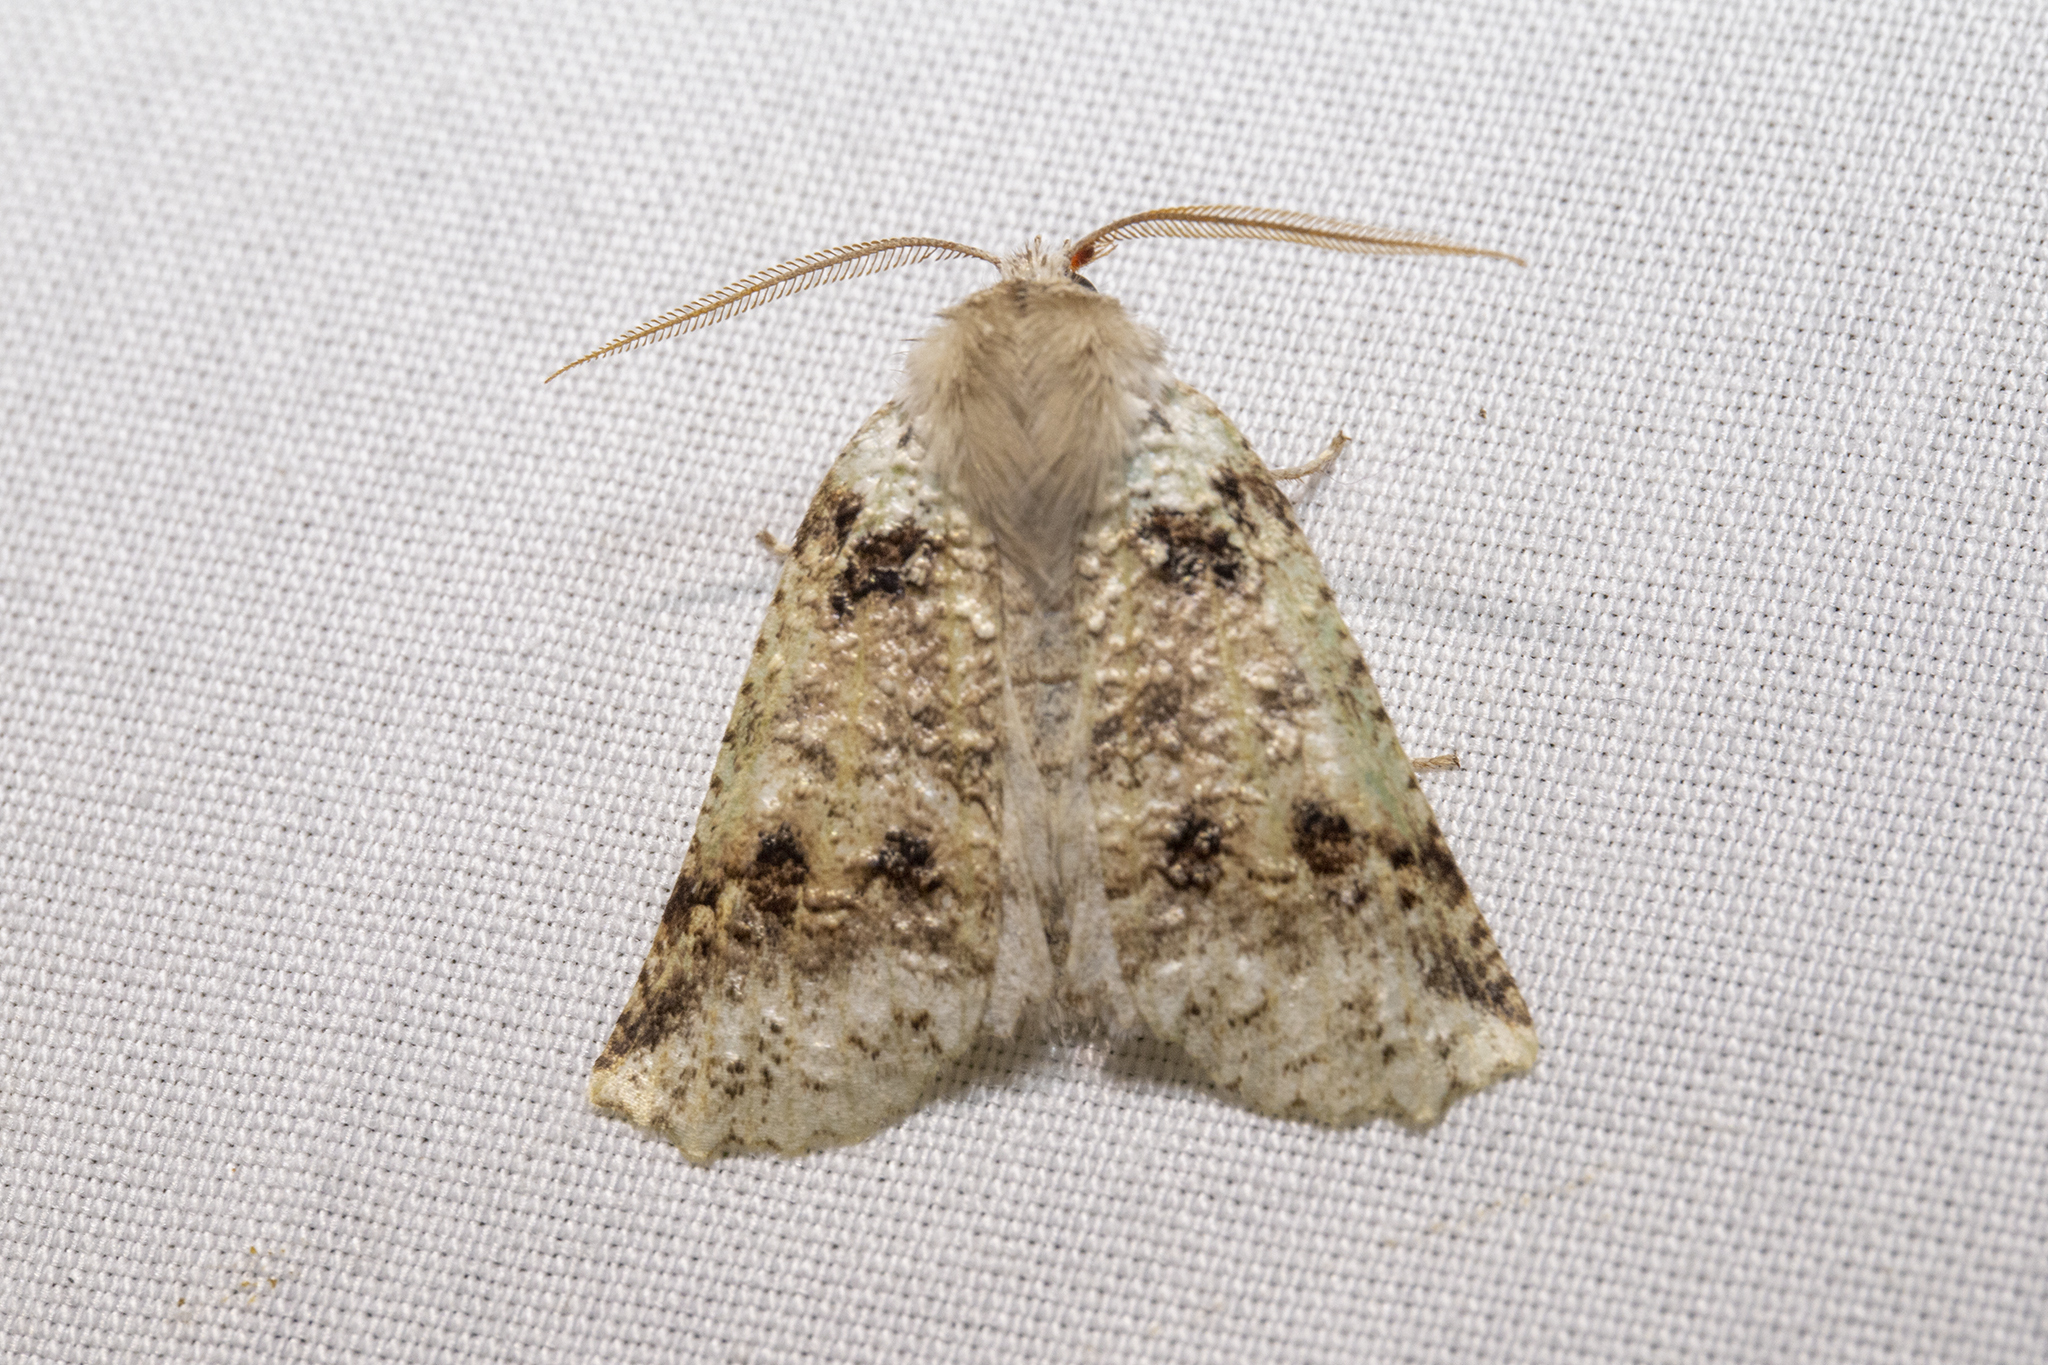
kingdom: Animalia
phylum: Arthropoda
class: Insecta
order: Lepidoptera
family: Geometridae
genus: Declana
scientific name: Declana floccosa
